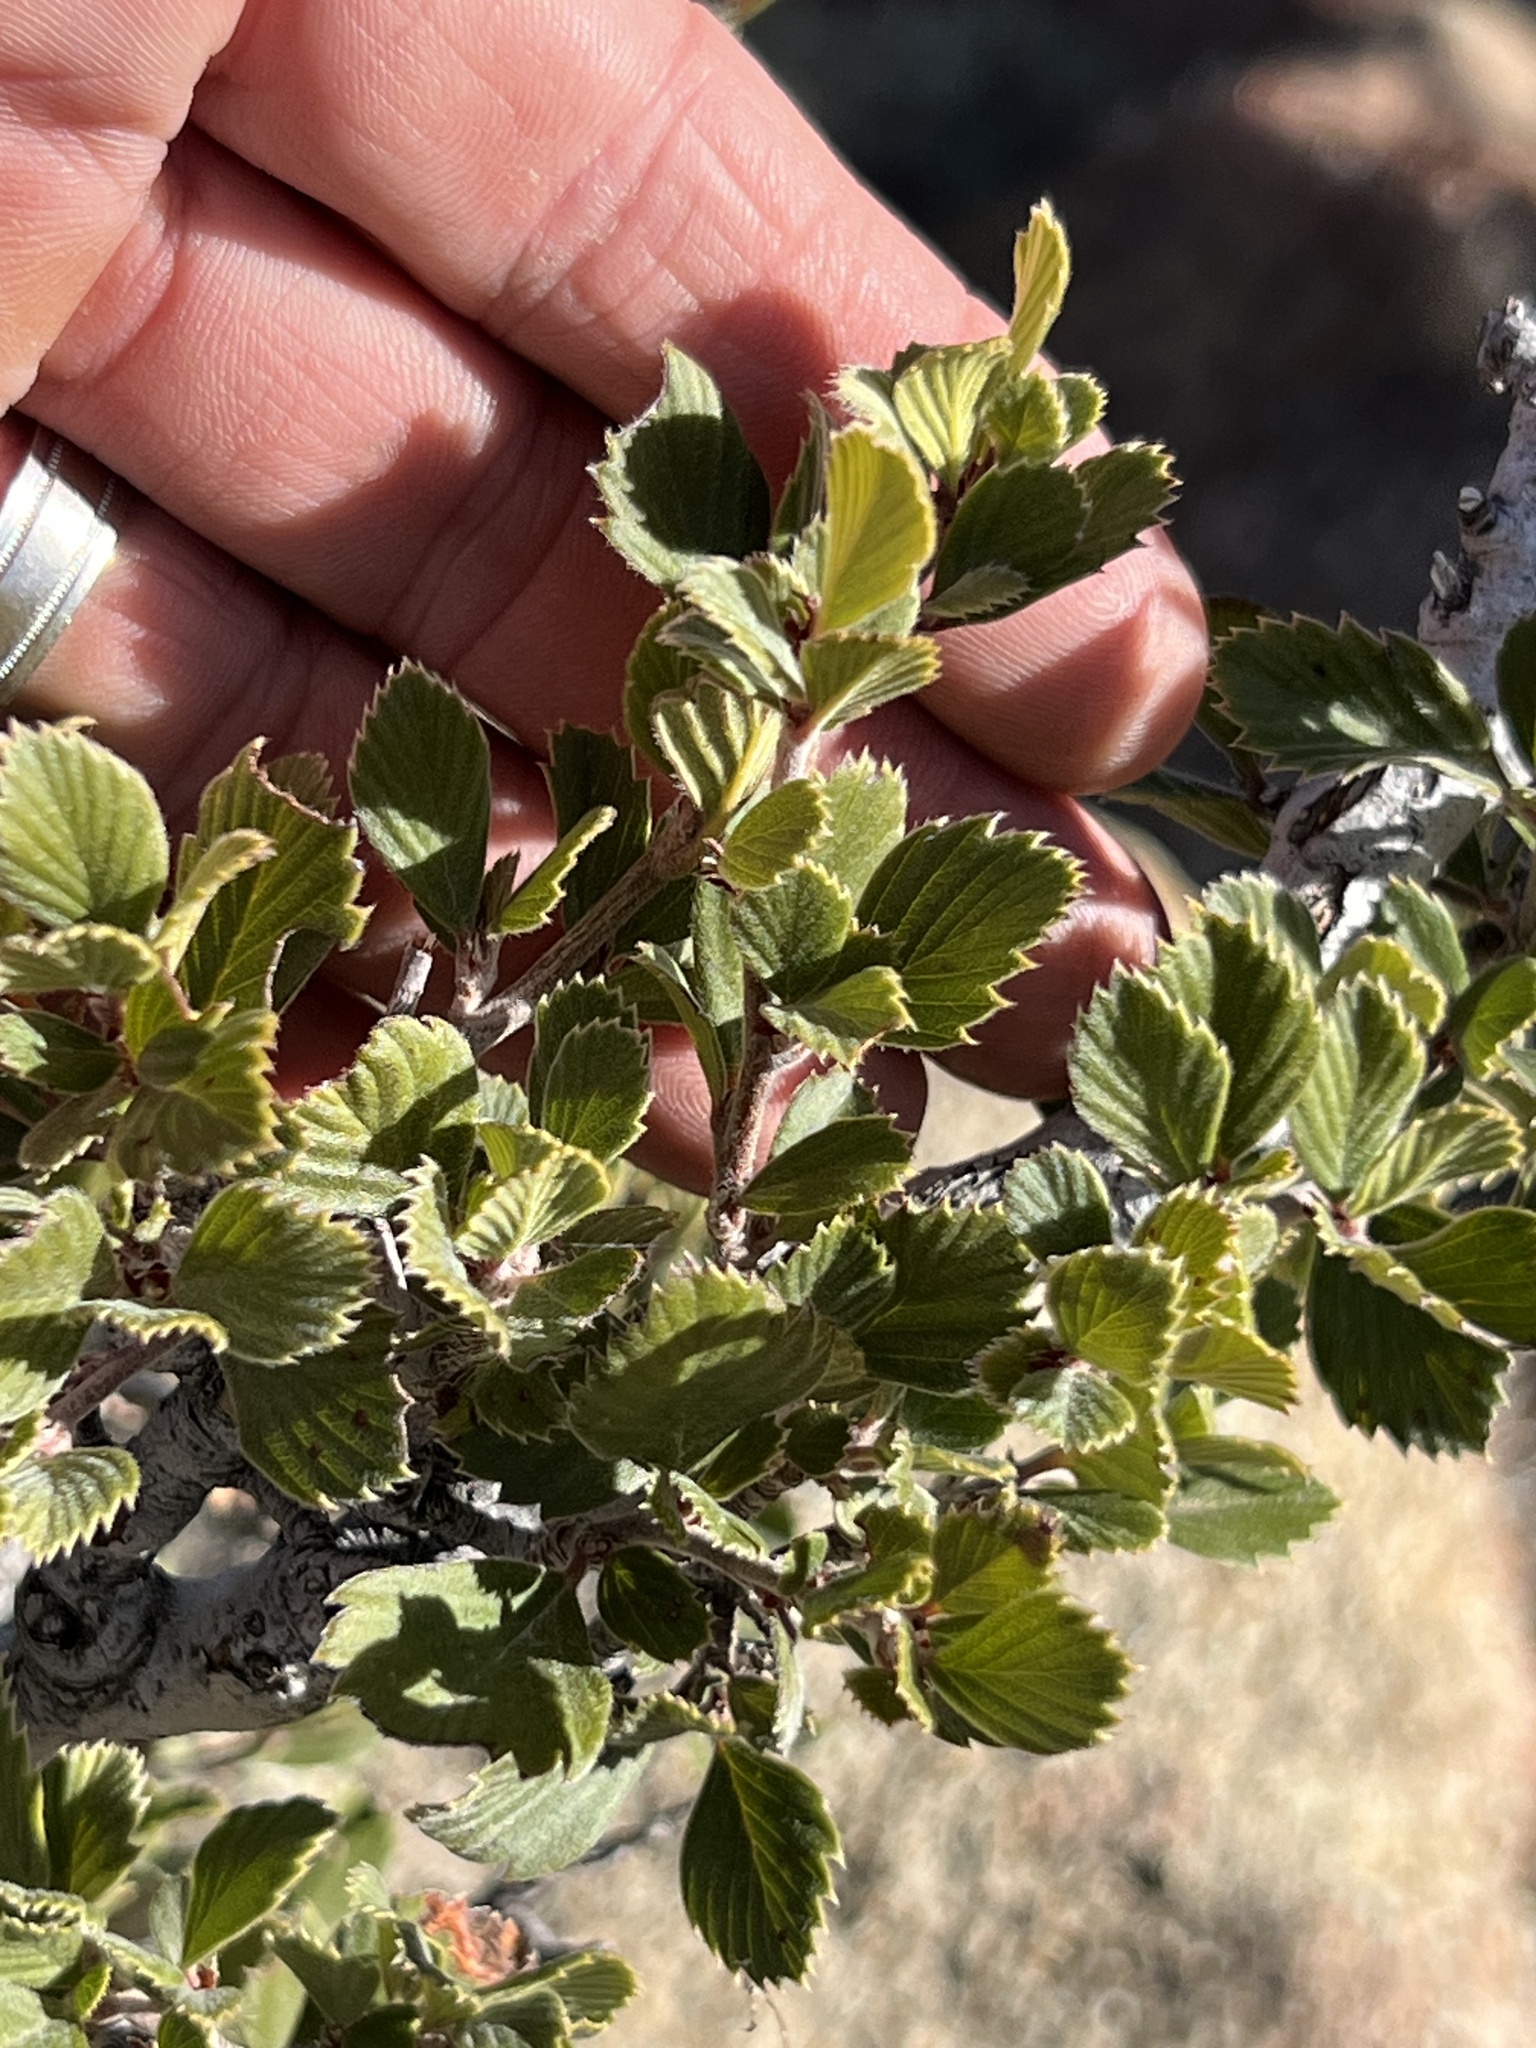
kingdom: Plantae
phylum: Tracheophyta
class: Magnoliopsida
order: Rosales
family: Rosaceae
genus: Cercocarpus
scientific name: Cercocarpus montanus
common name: Alder-leaf cercocarpus
